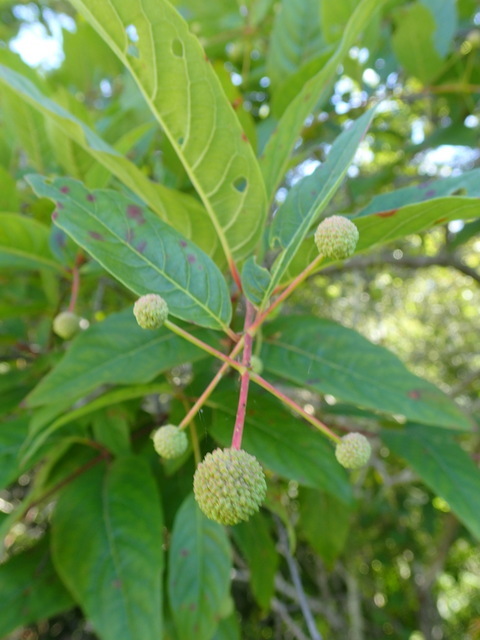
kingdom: Plantae
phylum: Tracheophyta
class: Magnoliopsida
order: Gentianales
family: Rubiaceae
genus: Cephalanthus
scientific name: Cephalanthus occidentalis
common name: Button-willow
